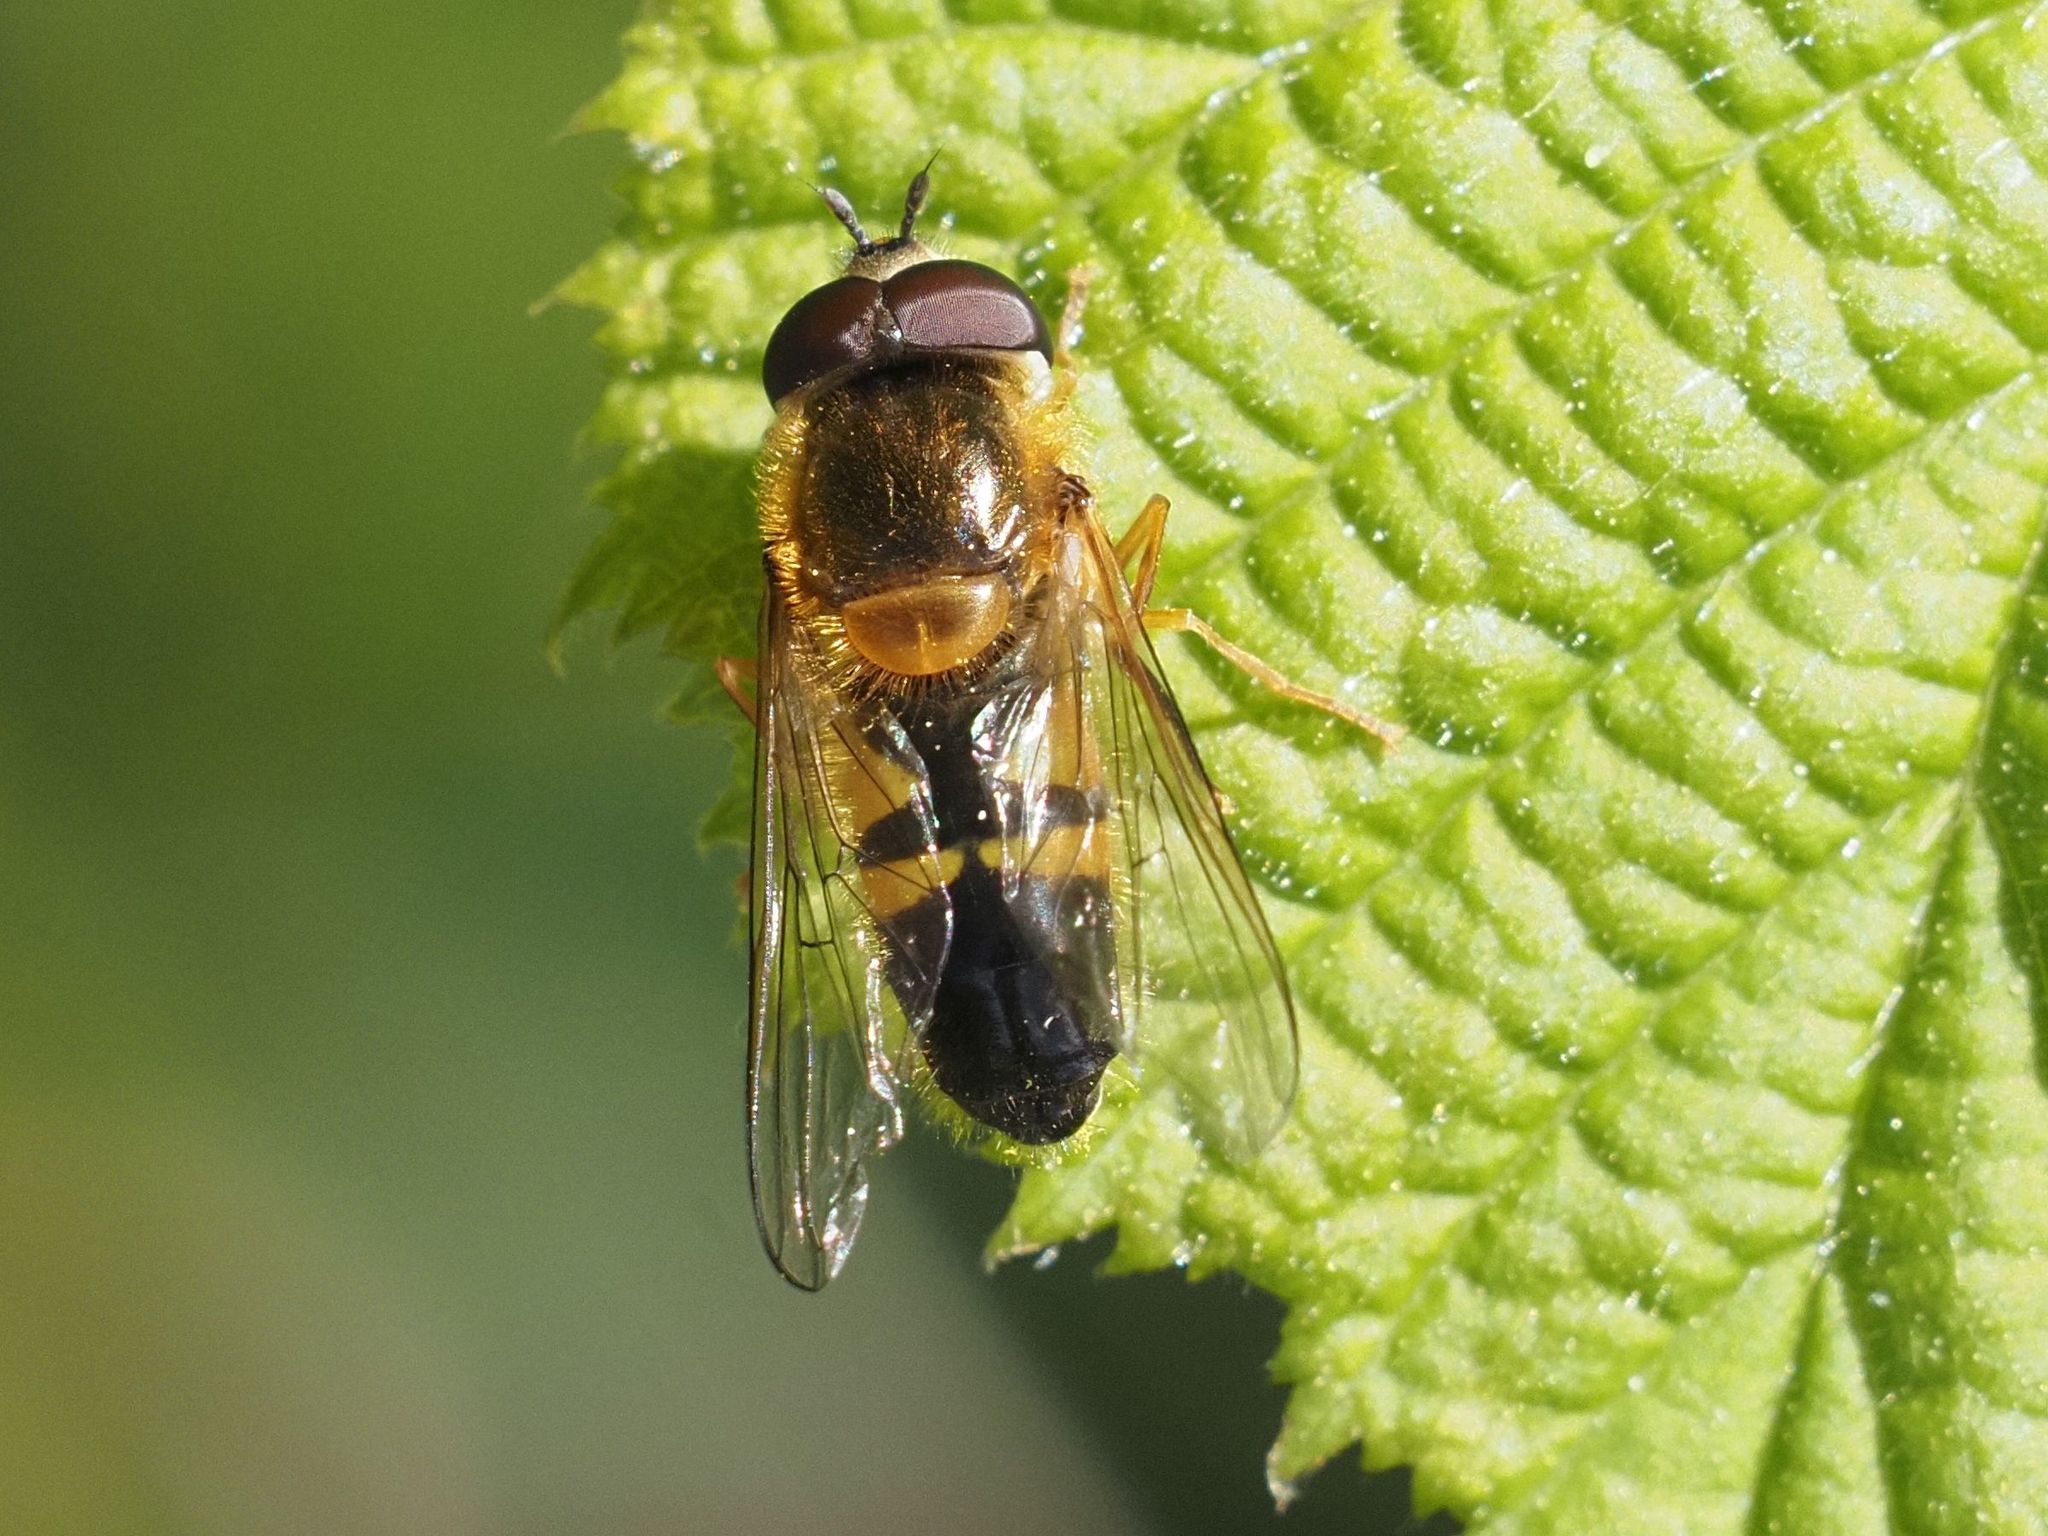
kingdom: Animalia
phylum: Arthropoda
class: Insecta
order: Diptera
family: Syrphidae
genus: Epistrophe
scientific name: Epistrophe eligans
